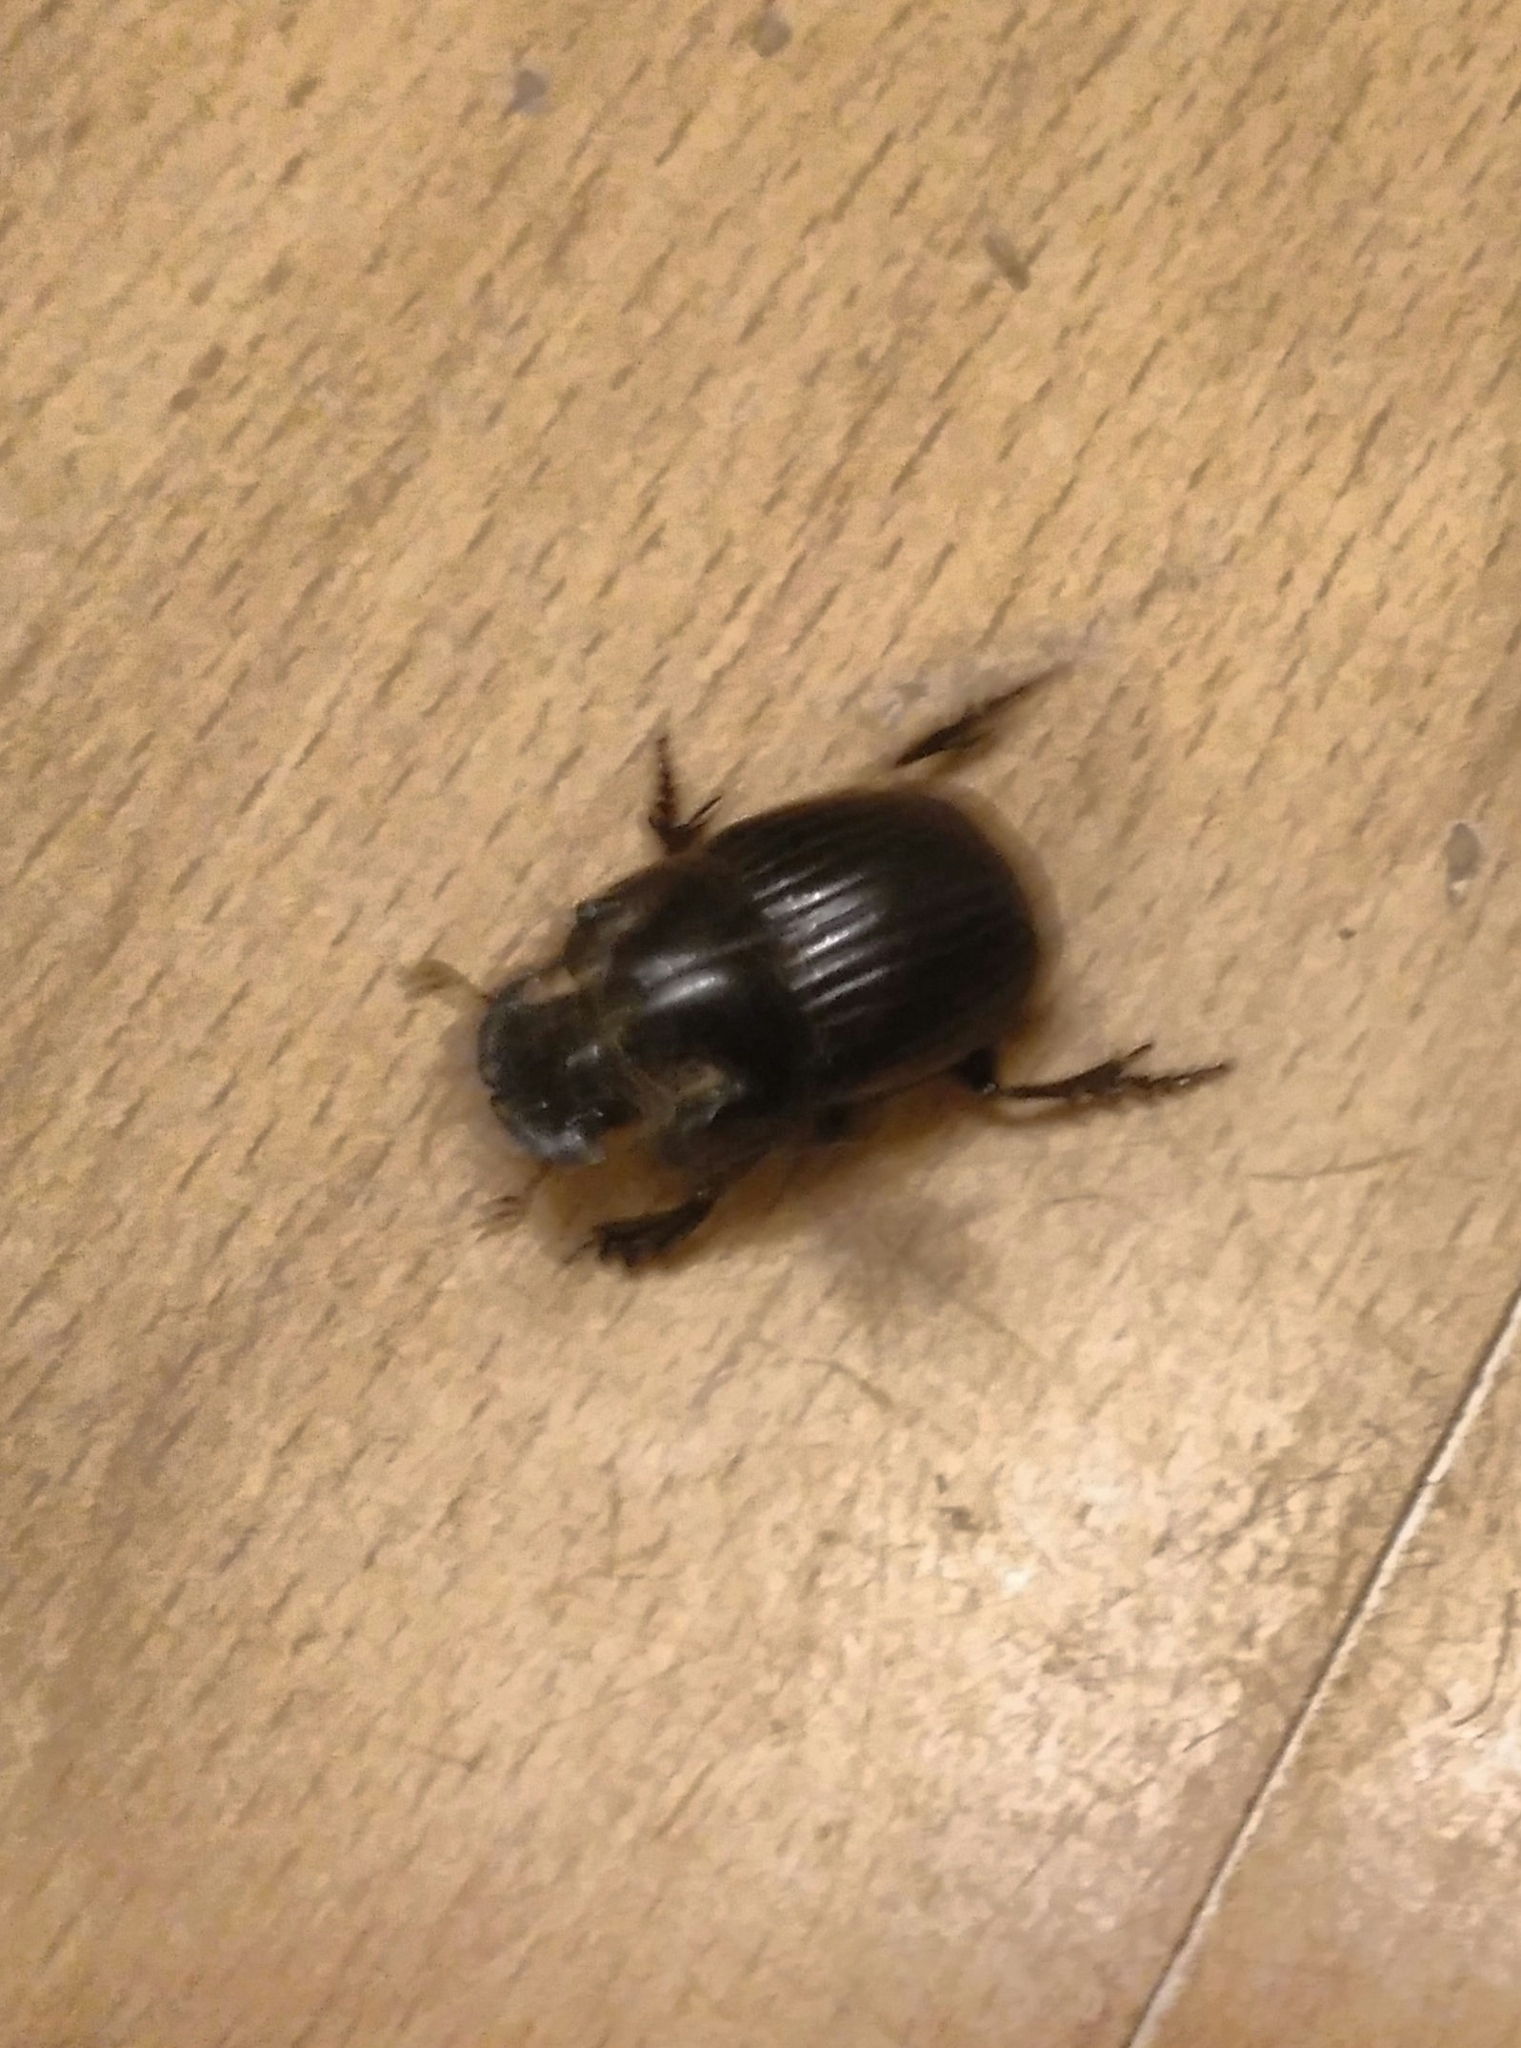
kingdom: Animalia
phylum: Arthropoda
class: Insecta
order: Coleoptera
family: Scarabaeidae
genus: Copris
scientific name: Copris lunaris
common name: Horned dung beetle
